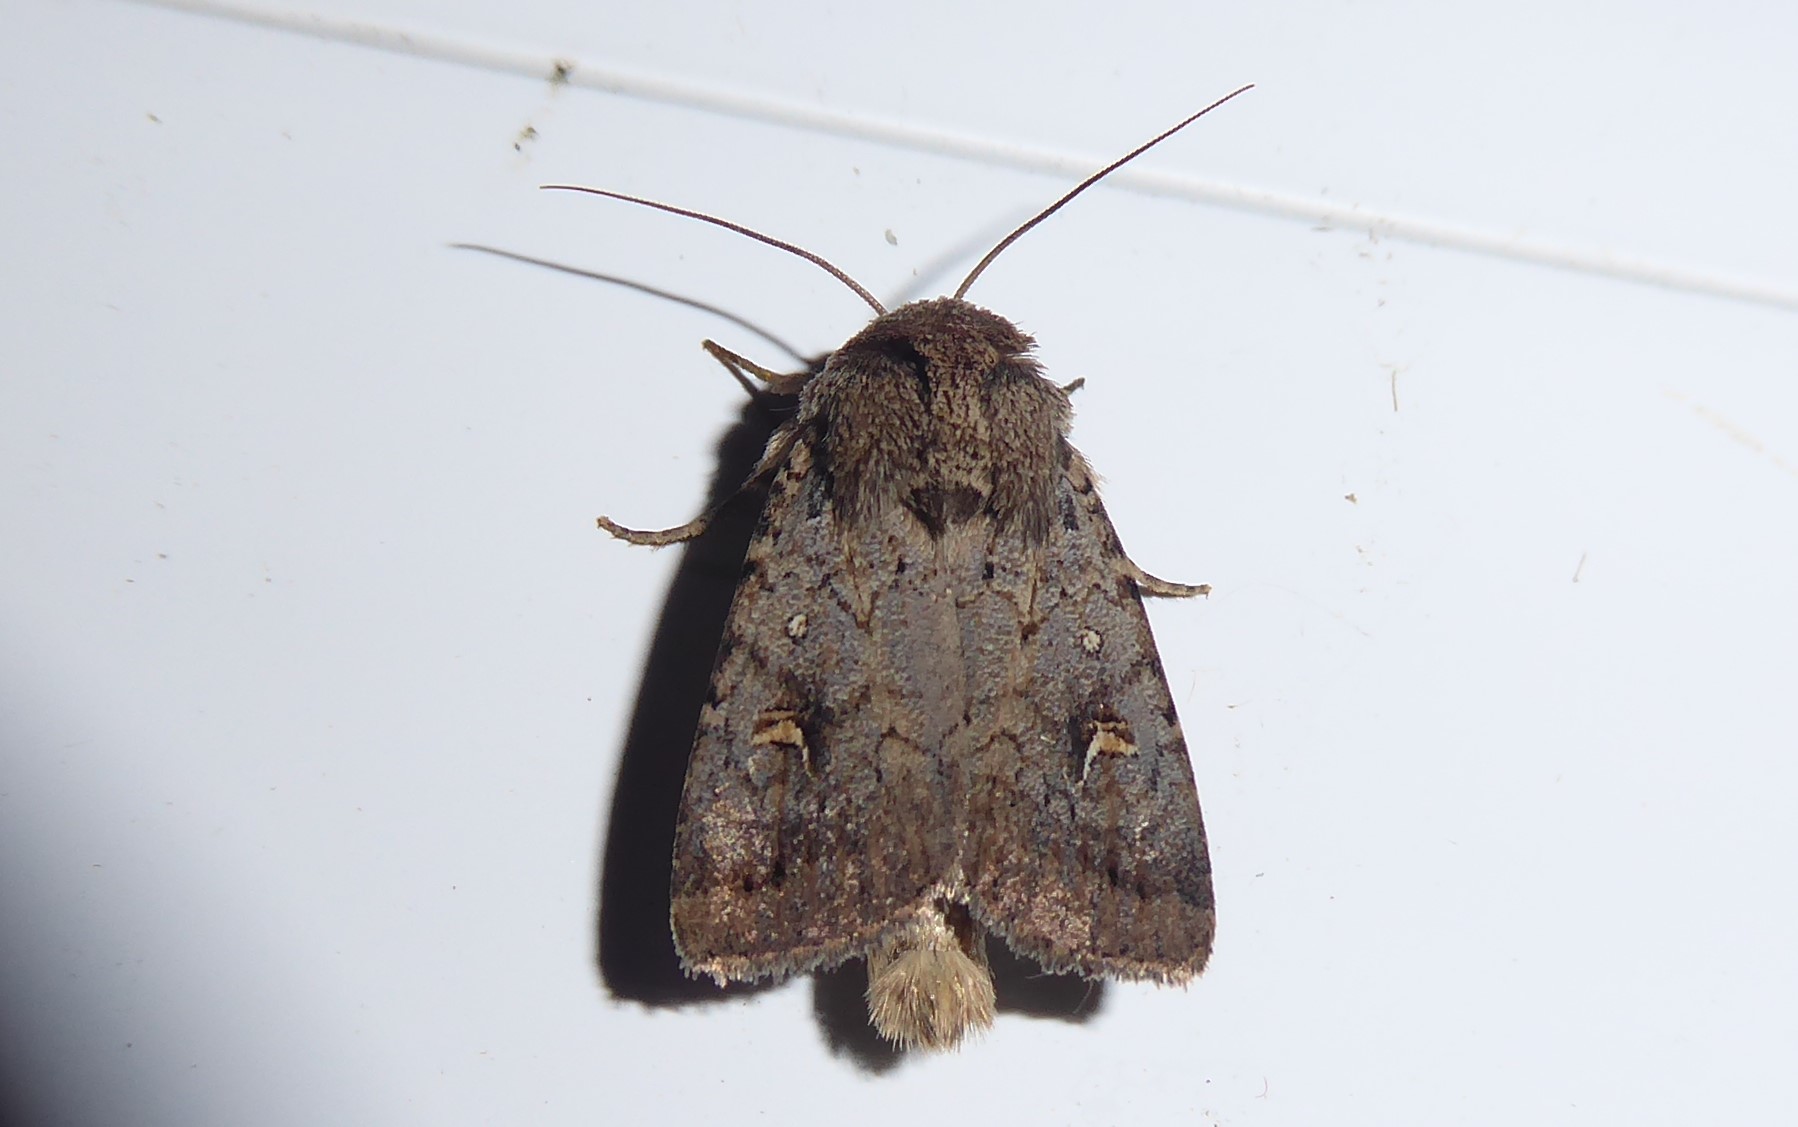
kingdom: Animalia
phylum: Arthropoda
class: Insecta
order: Lepidoptera
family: Noctuidae
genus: Proteuxoa
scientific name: Proteuxoa tetronycha
